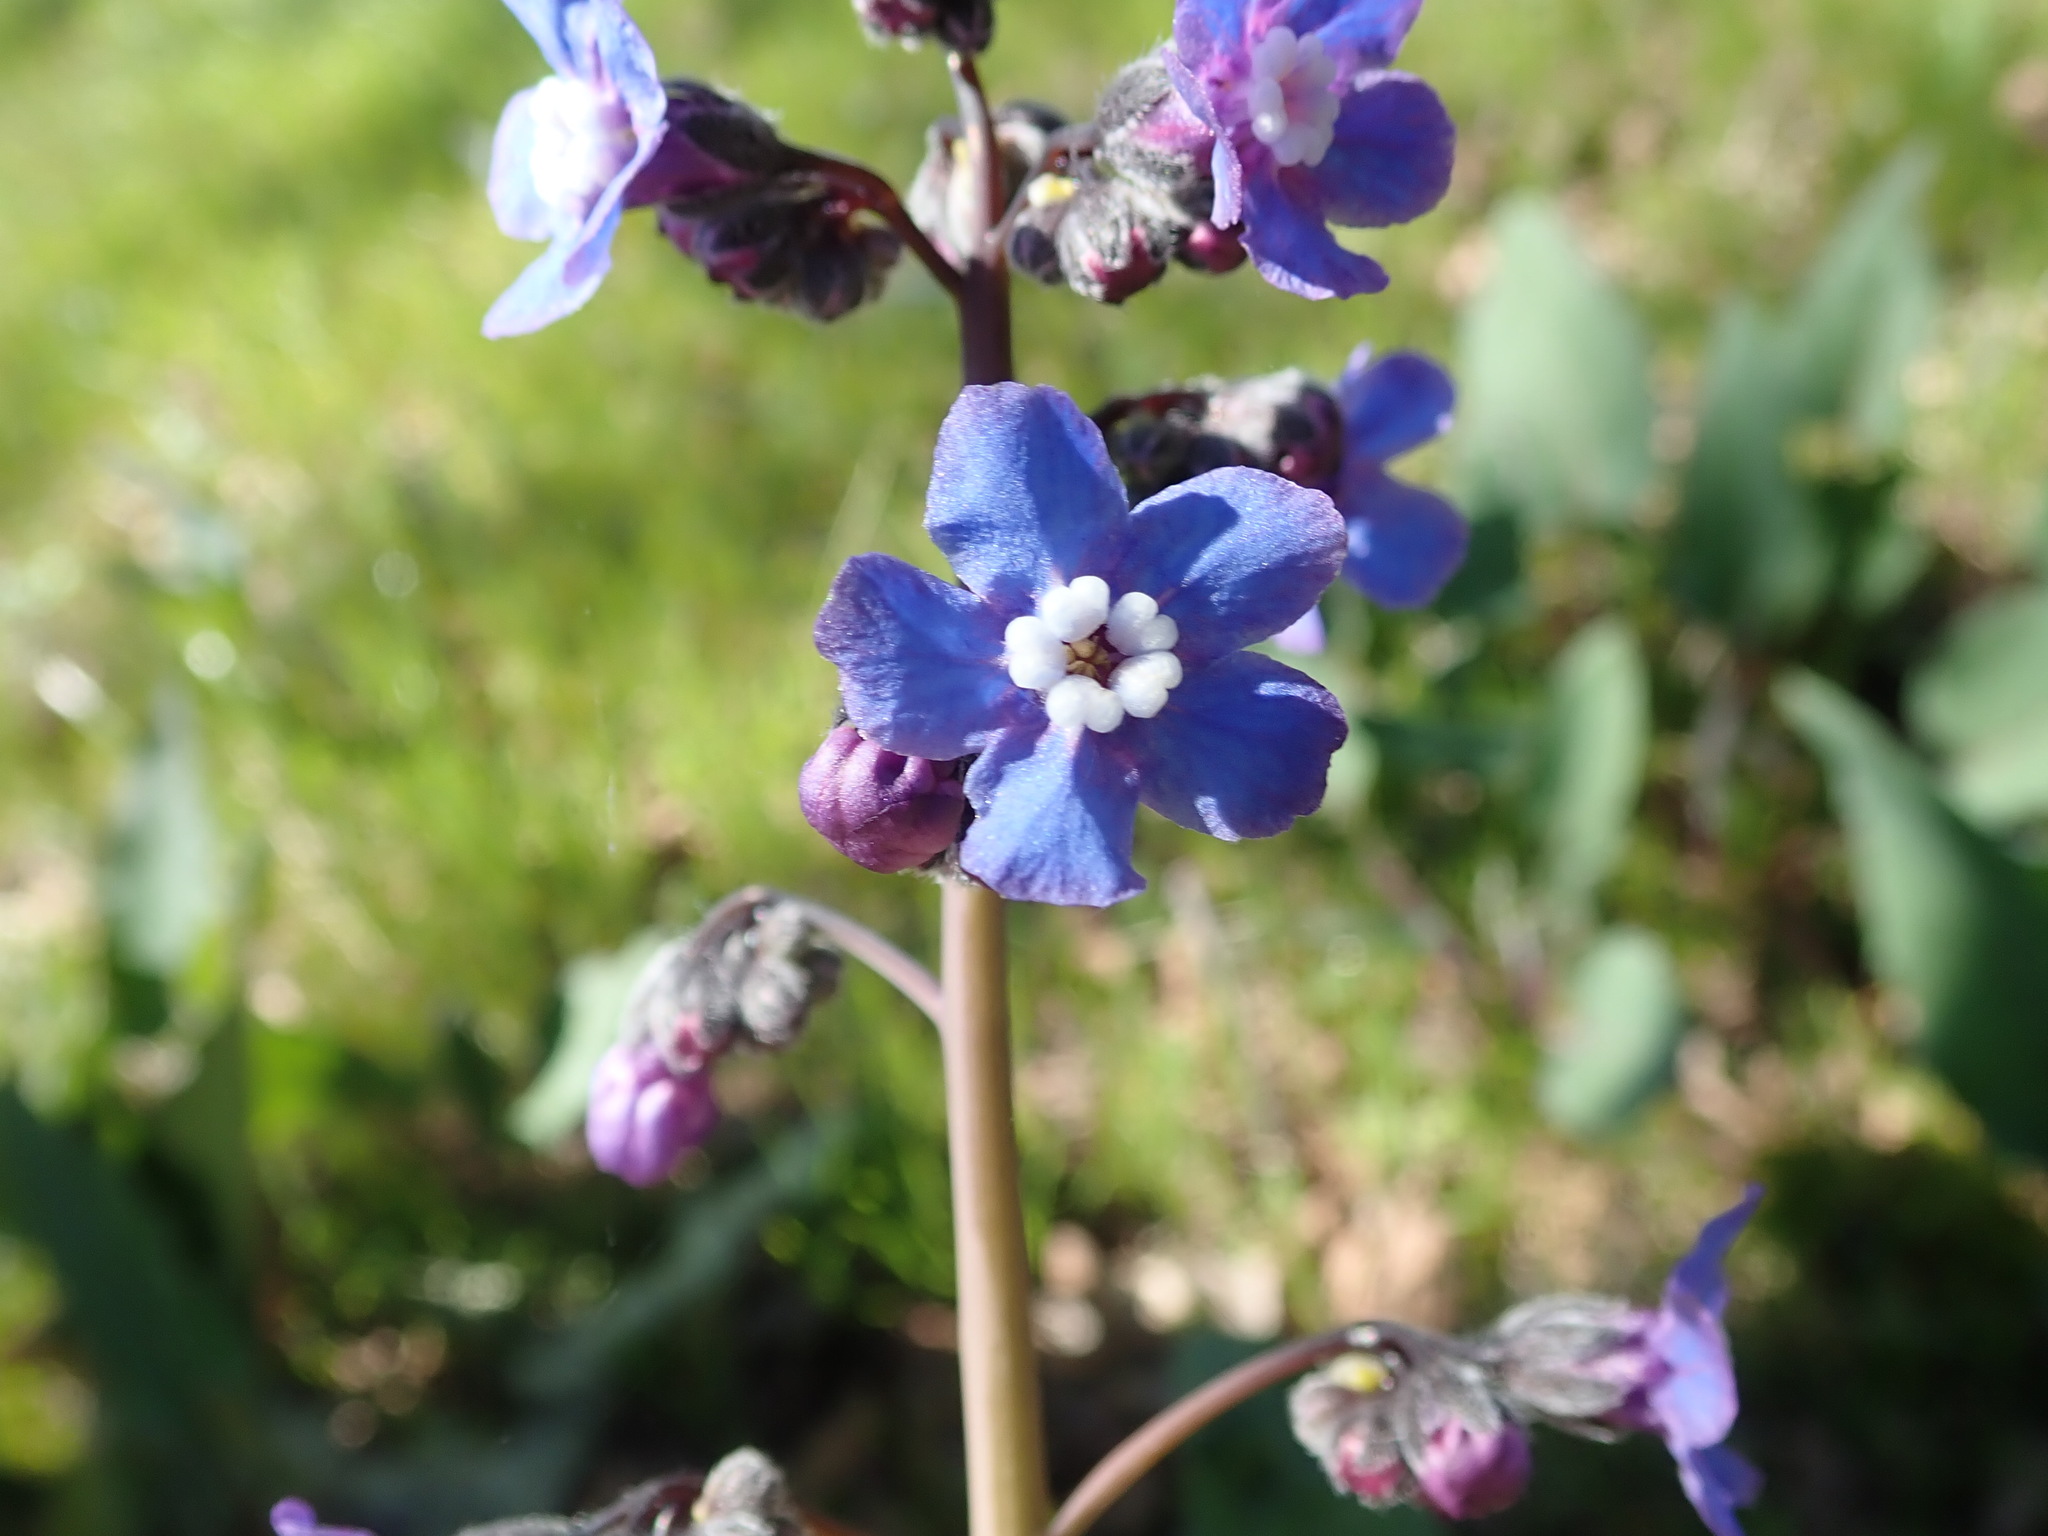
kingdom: Plantae
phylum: Tracheophyta
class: Magnoliopsida
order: Boraginales
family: Boraginaceae
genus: Adelinia
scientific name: Adelinia grande
